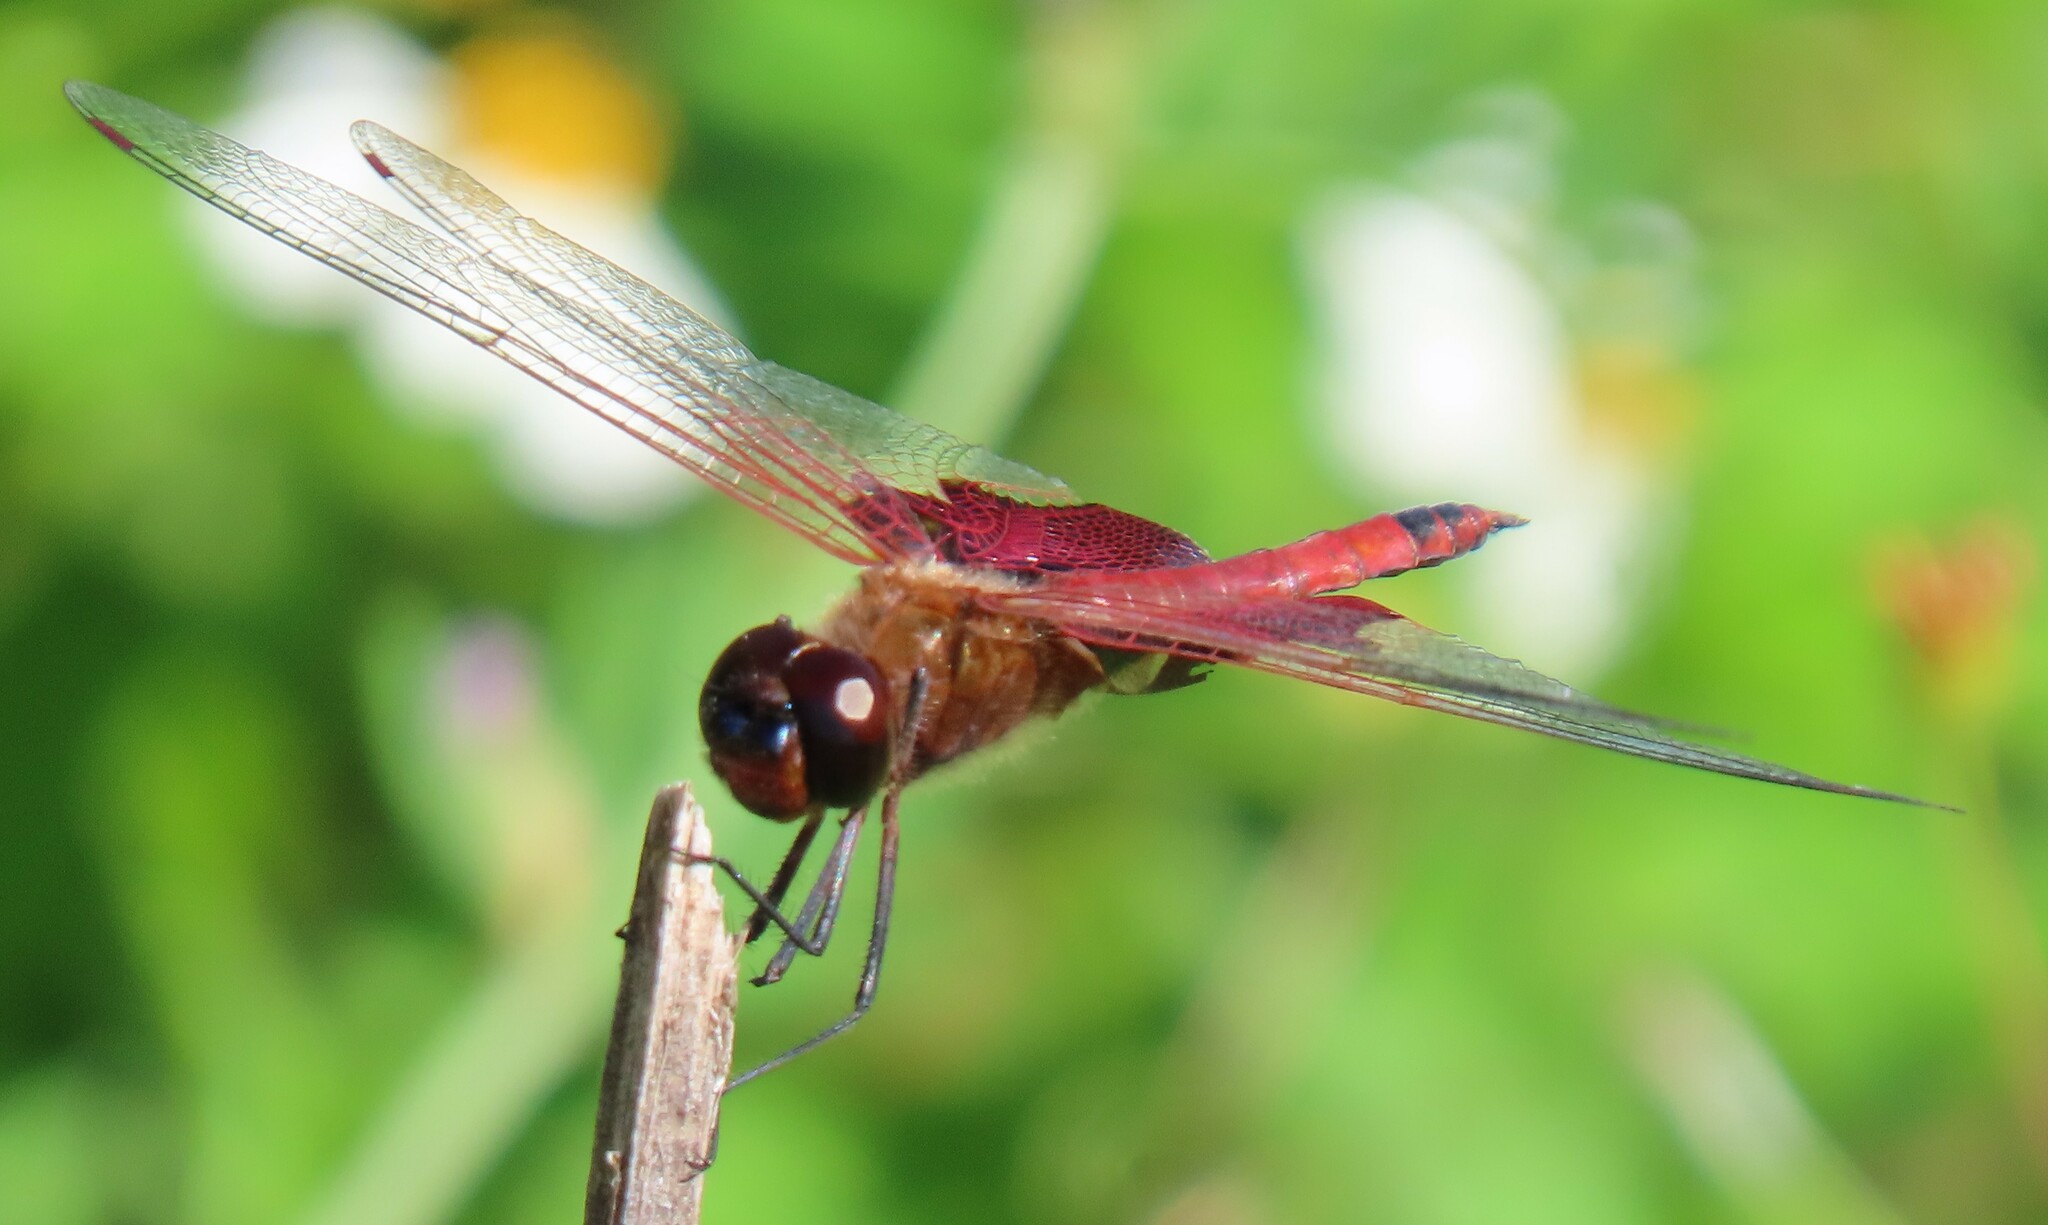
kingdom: Animalia
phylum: Arthropoda
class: Insecta
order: Odonata
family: Libellulidae
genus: Tramea
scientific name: Tramea carolina
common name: Carolina saddlebags
